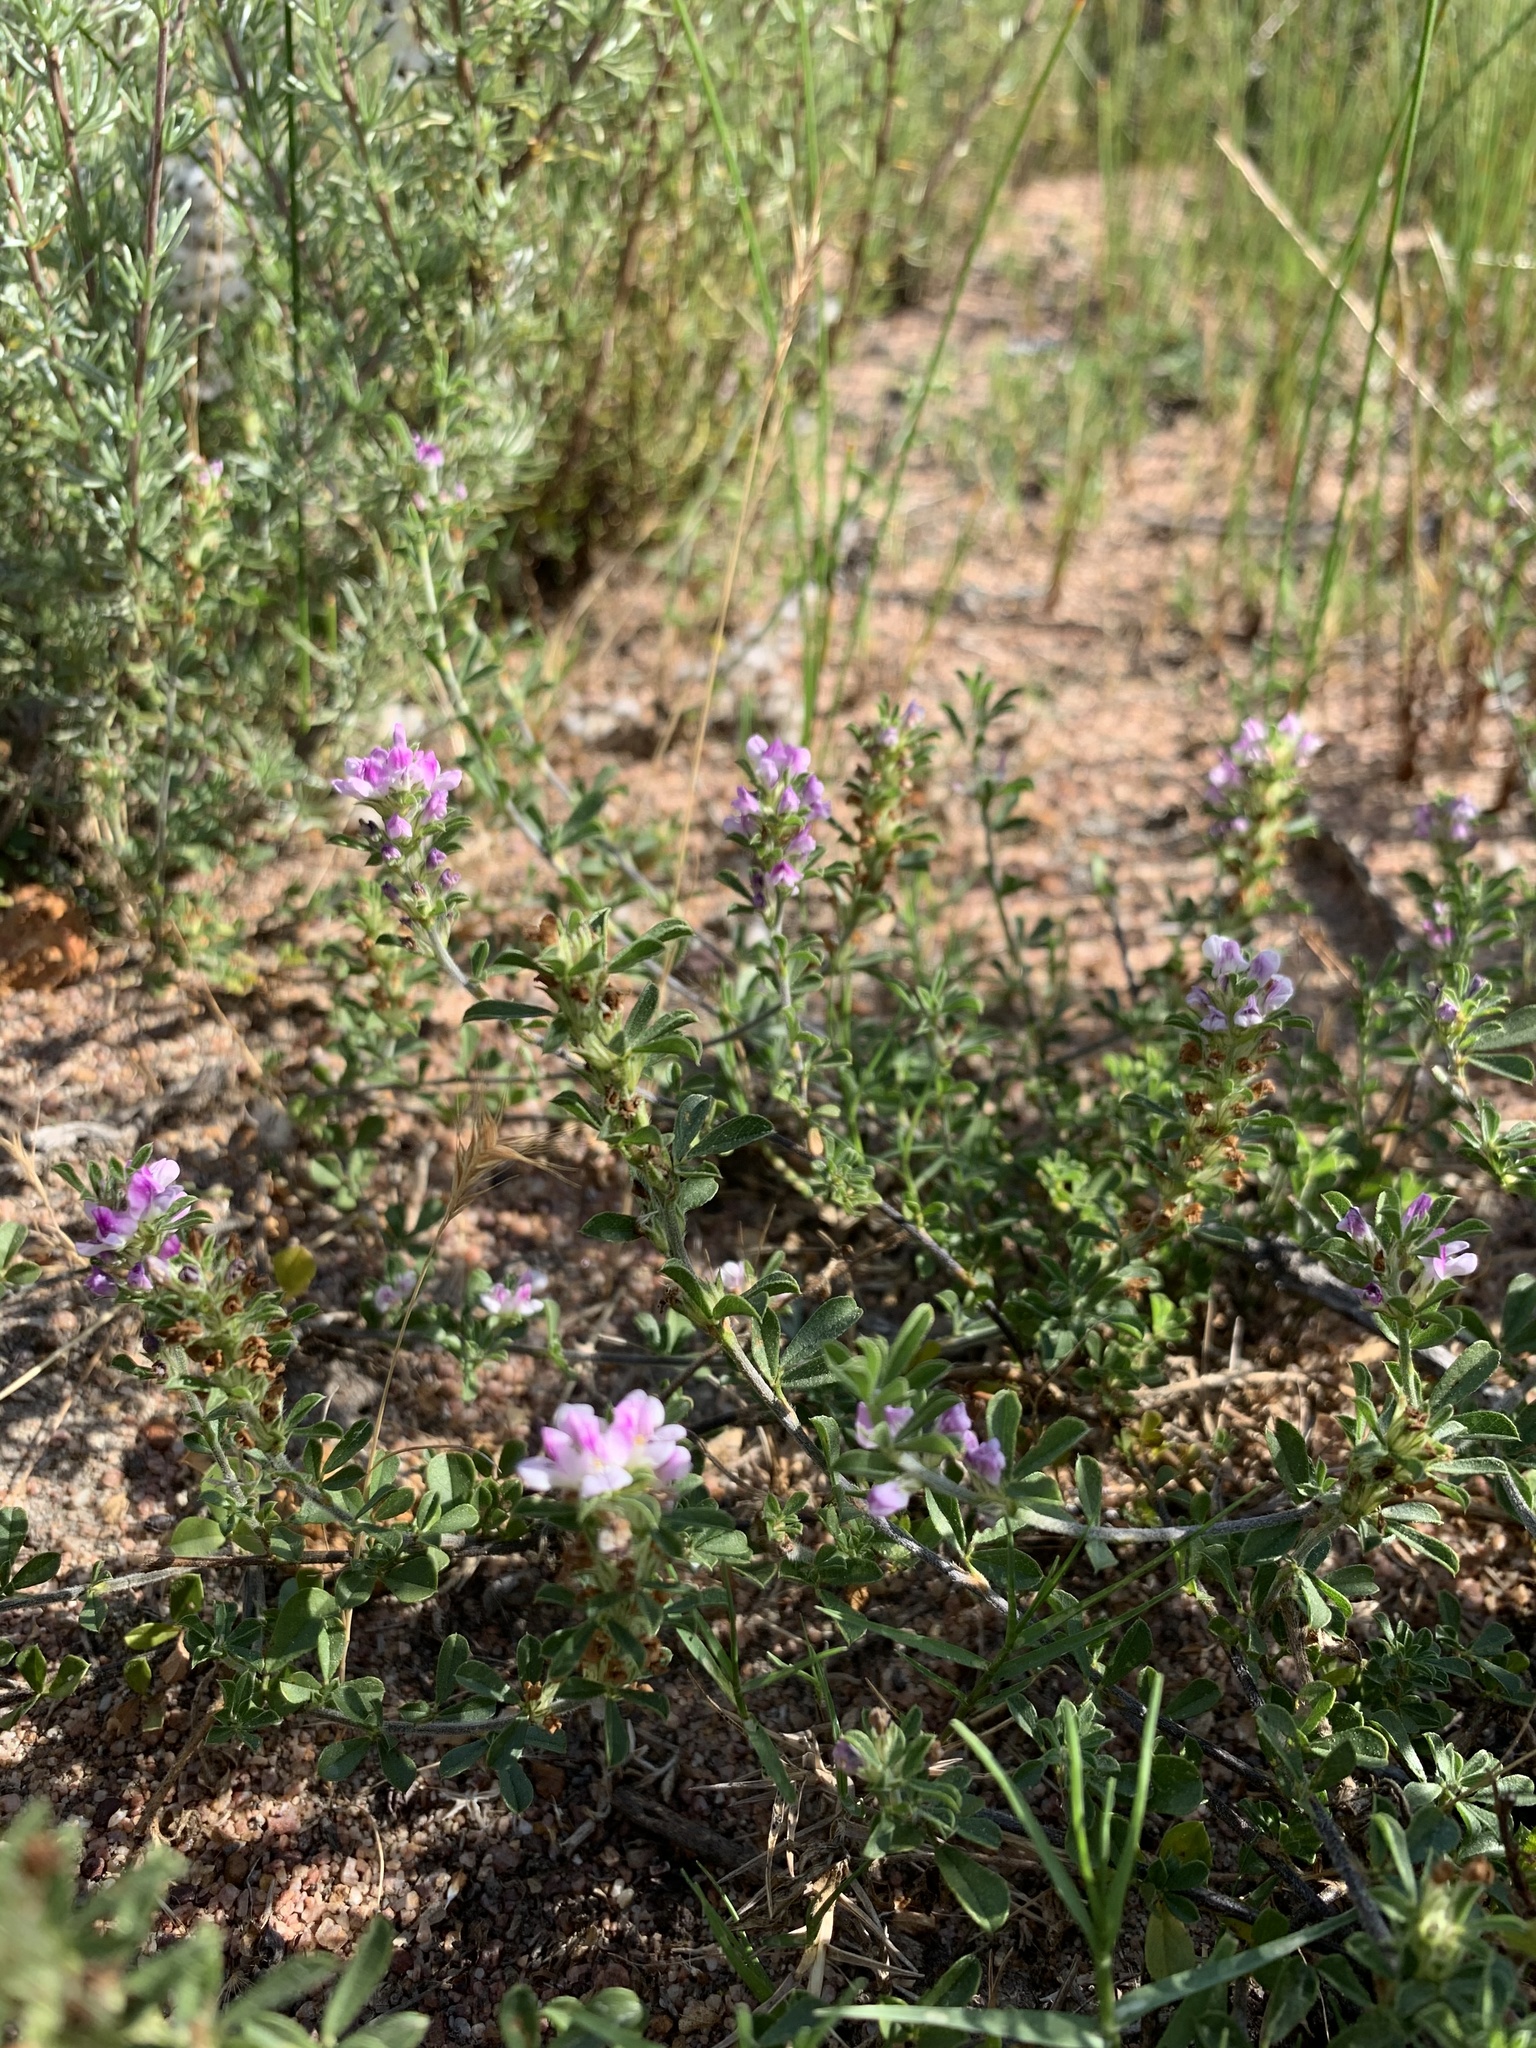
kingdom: Plantae
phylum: Tracheophyta
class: Magnoliopsida
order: Fabales
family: Fabaceae
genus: Psoralea
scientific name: Psoralea
